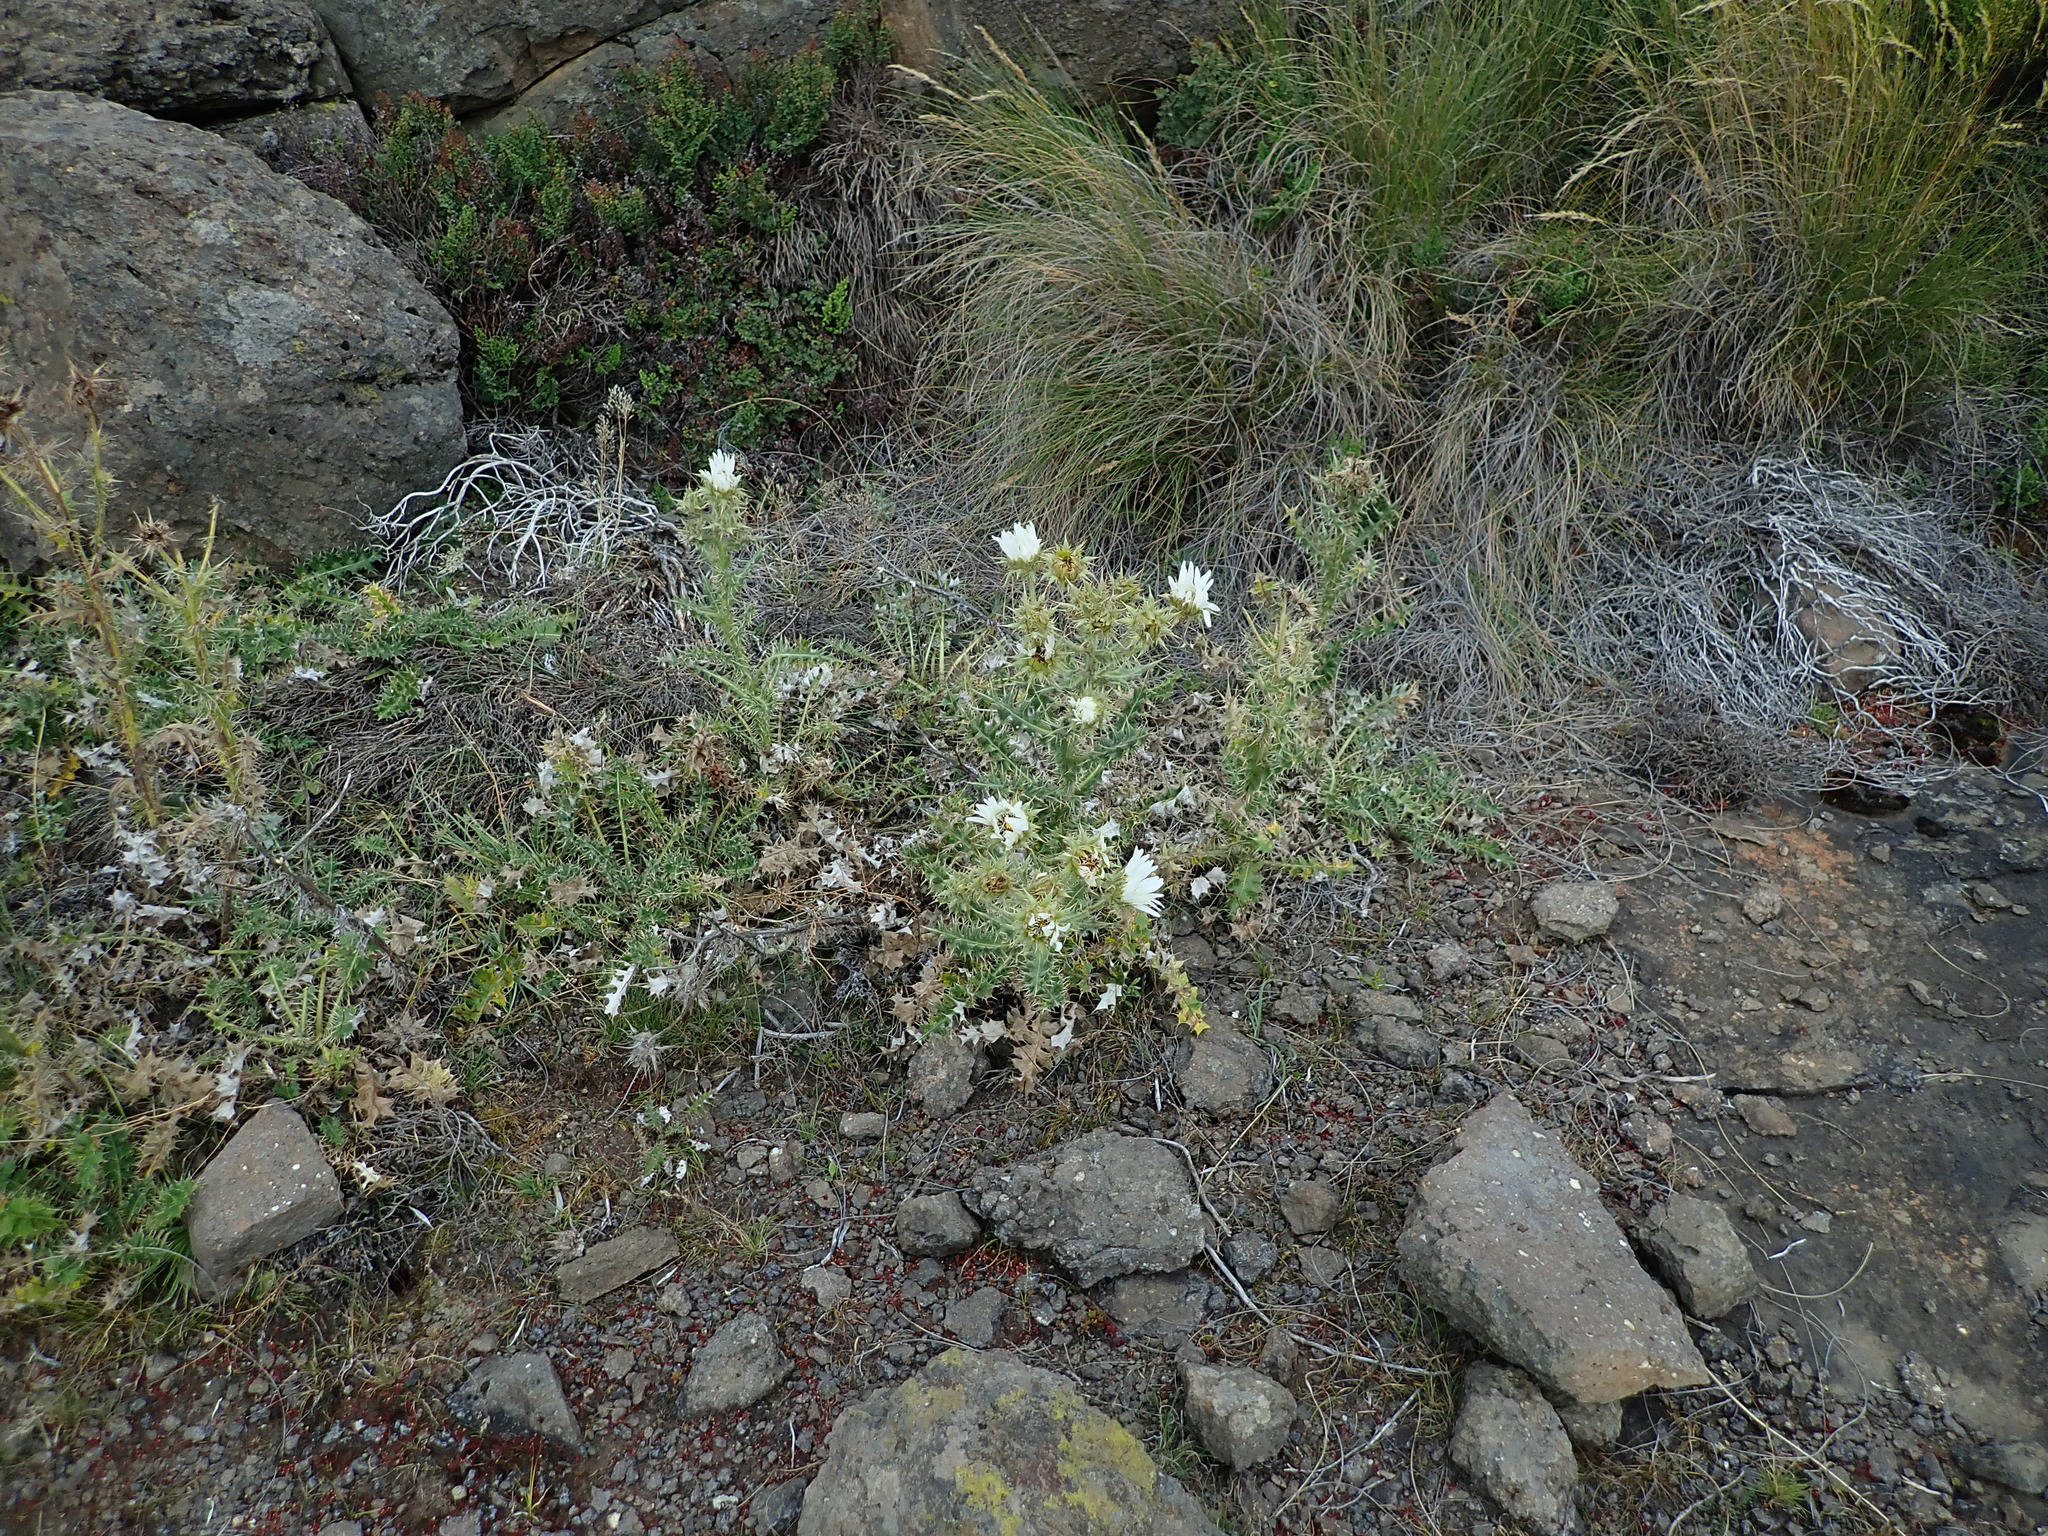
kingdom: Plantae
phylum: Tracheophyta
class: Magnoliopsida
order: Asterales
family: Asteraceae
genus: Berkheya
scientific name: Berkheya cirsiifolia
